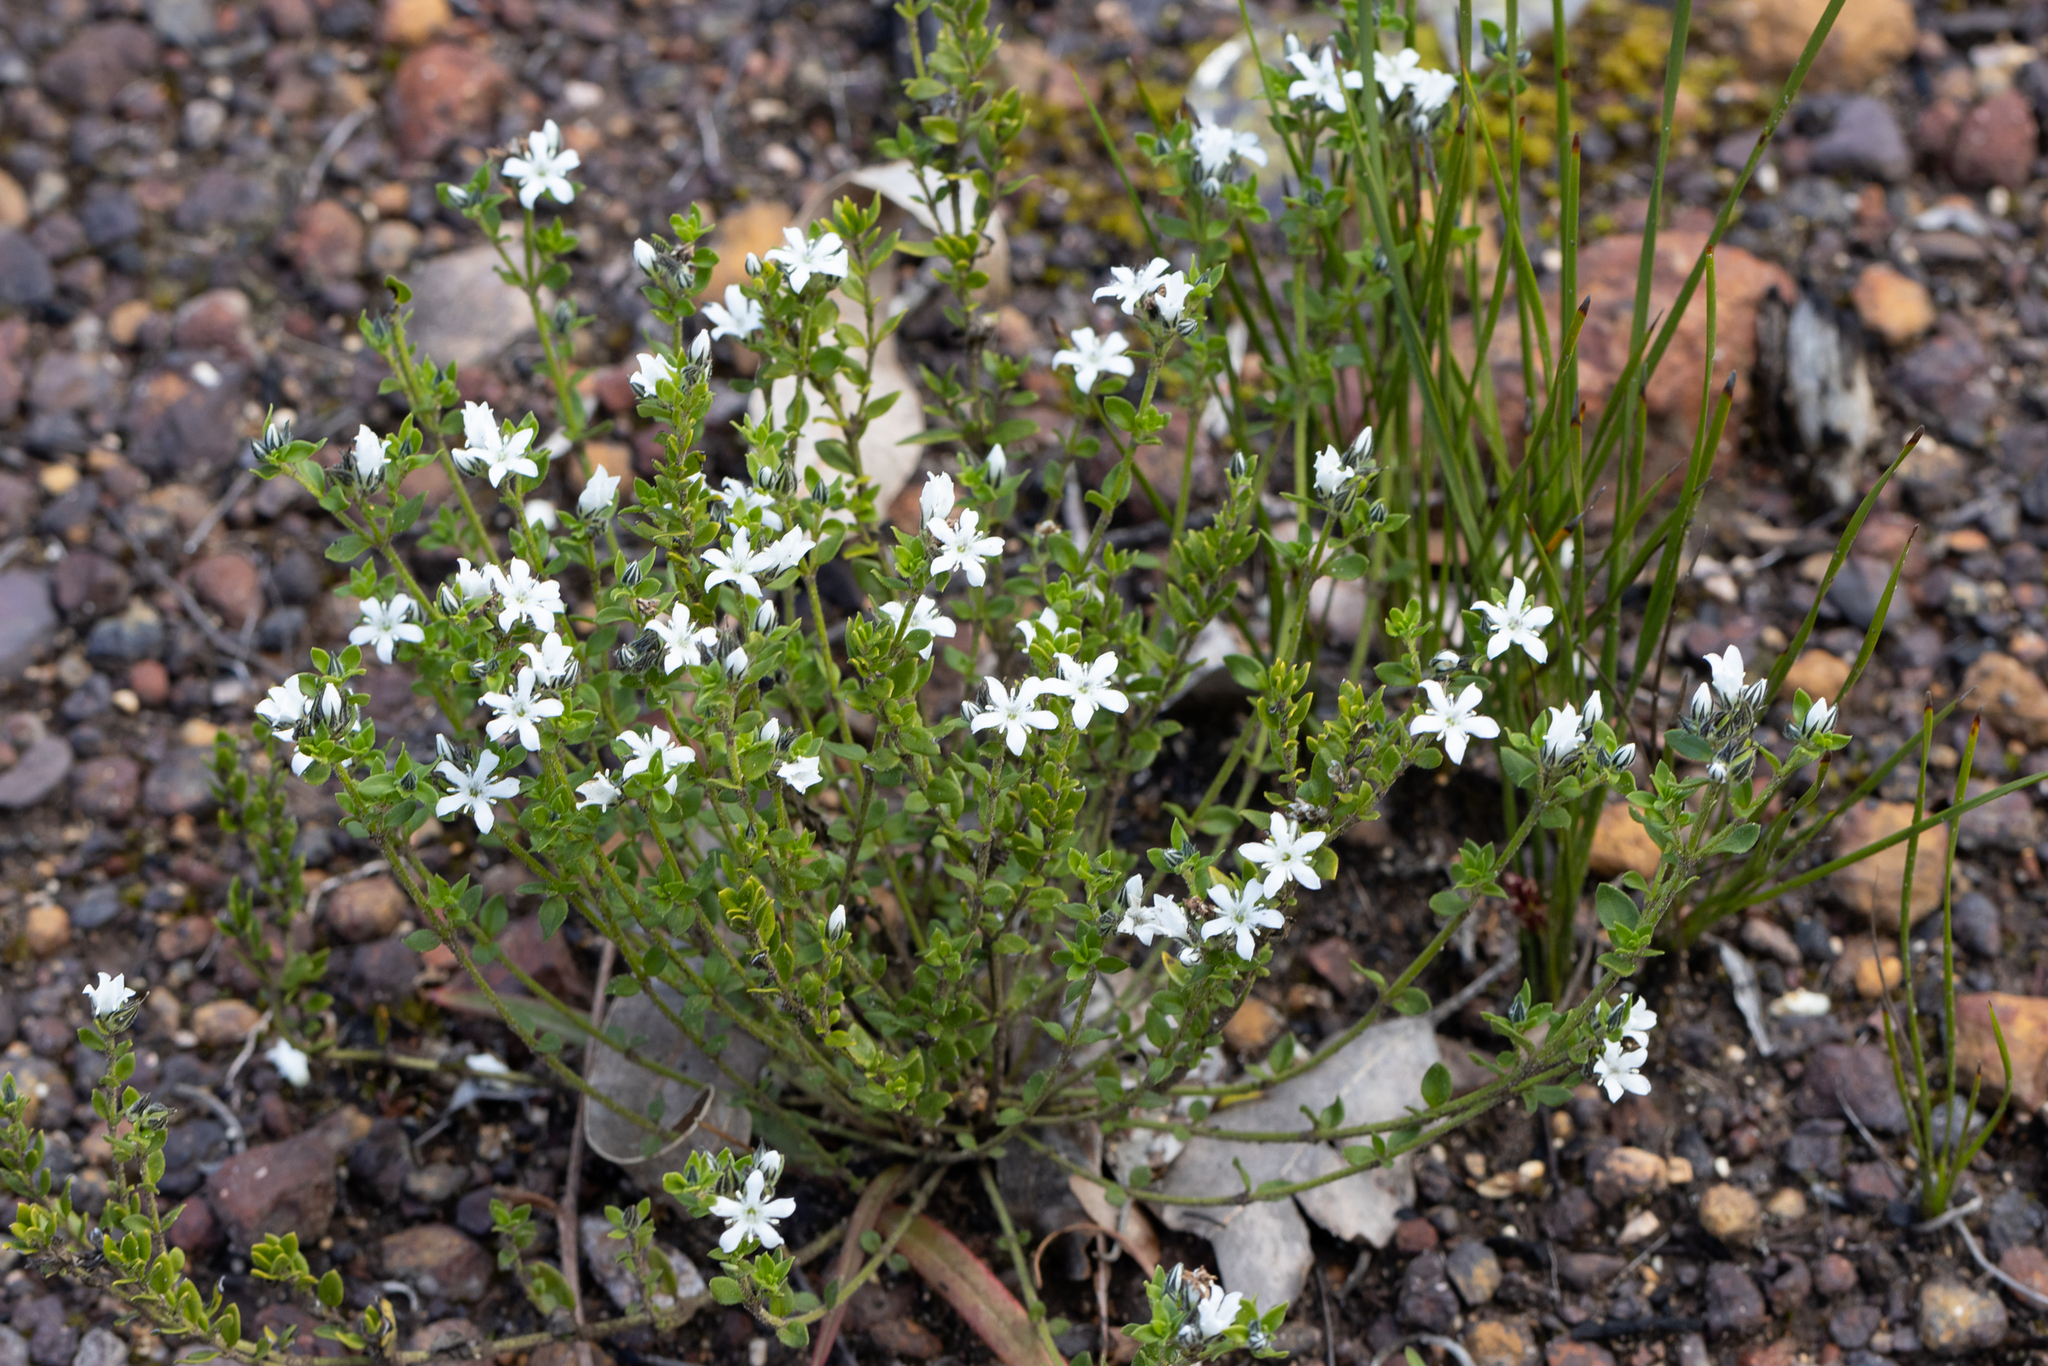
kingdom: Plantae
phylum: Tracheophyta
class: Magnoliopsida
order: Gentianales
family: Loganiaceae
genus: Orianthera
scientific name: Orianthera serpyllifolia
